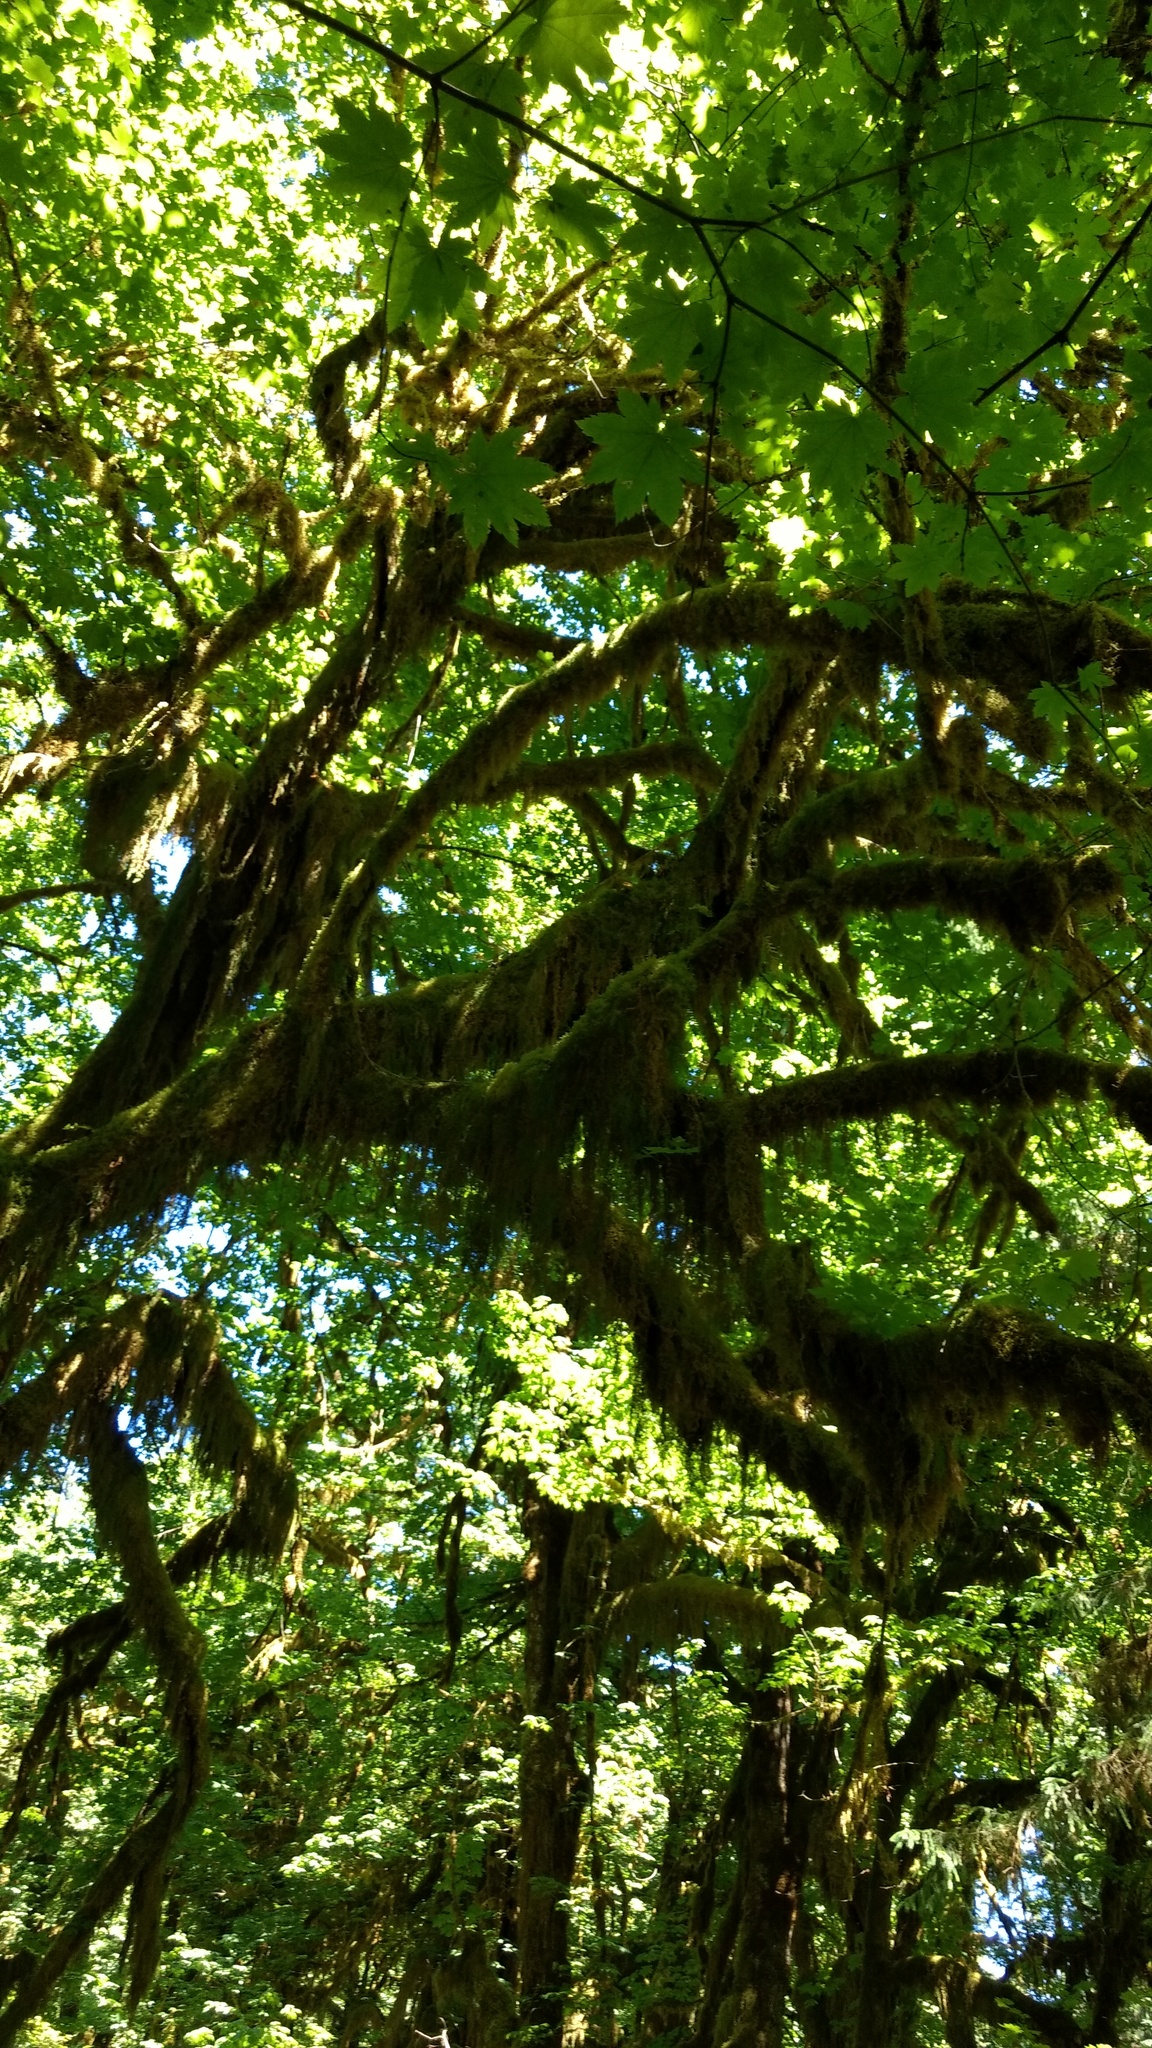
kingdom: Plantae
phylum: Tracheophyta
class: Magnoliopsida
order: Sapindales
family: Sapindaceae
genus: Acer
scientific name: Acer circinatum
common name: Vine maple
